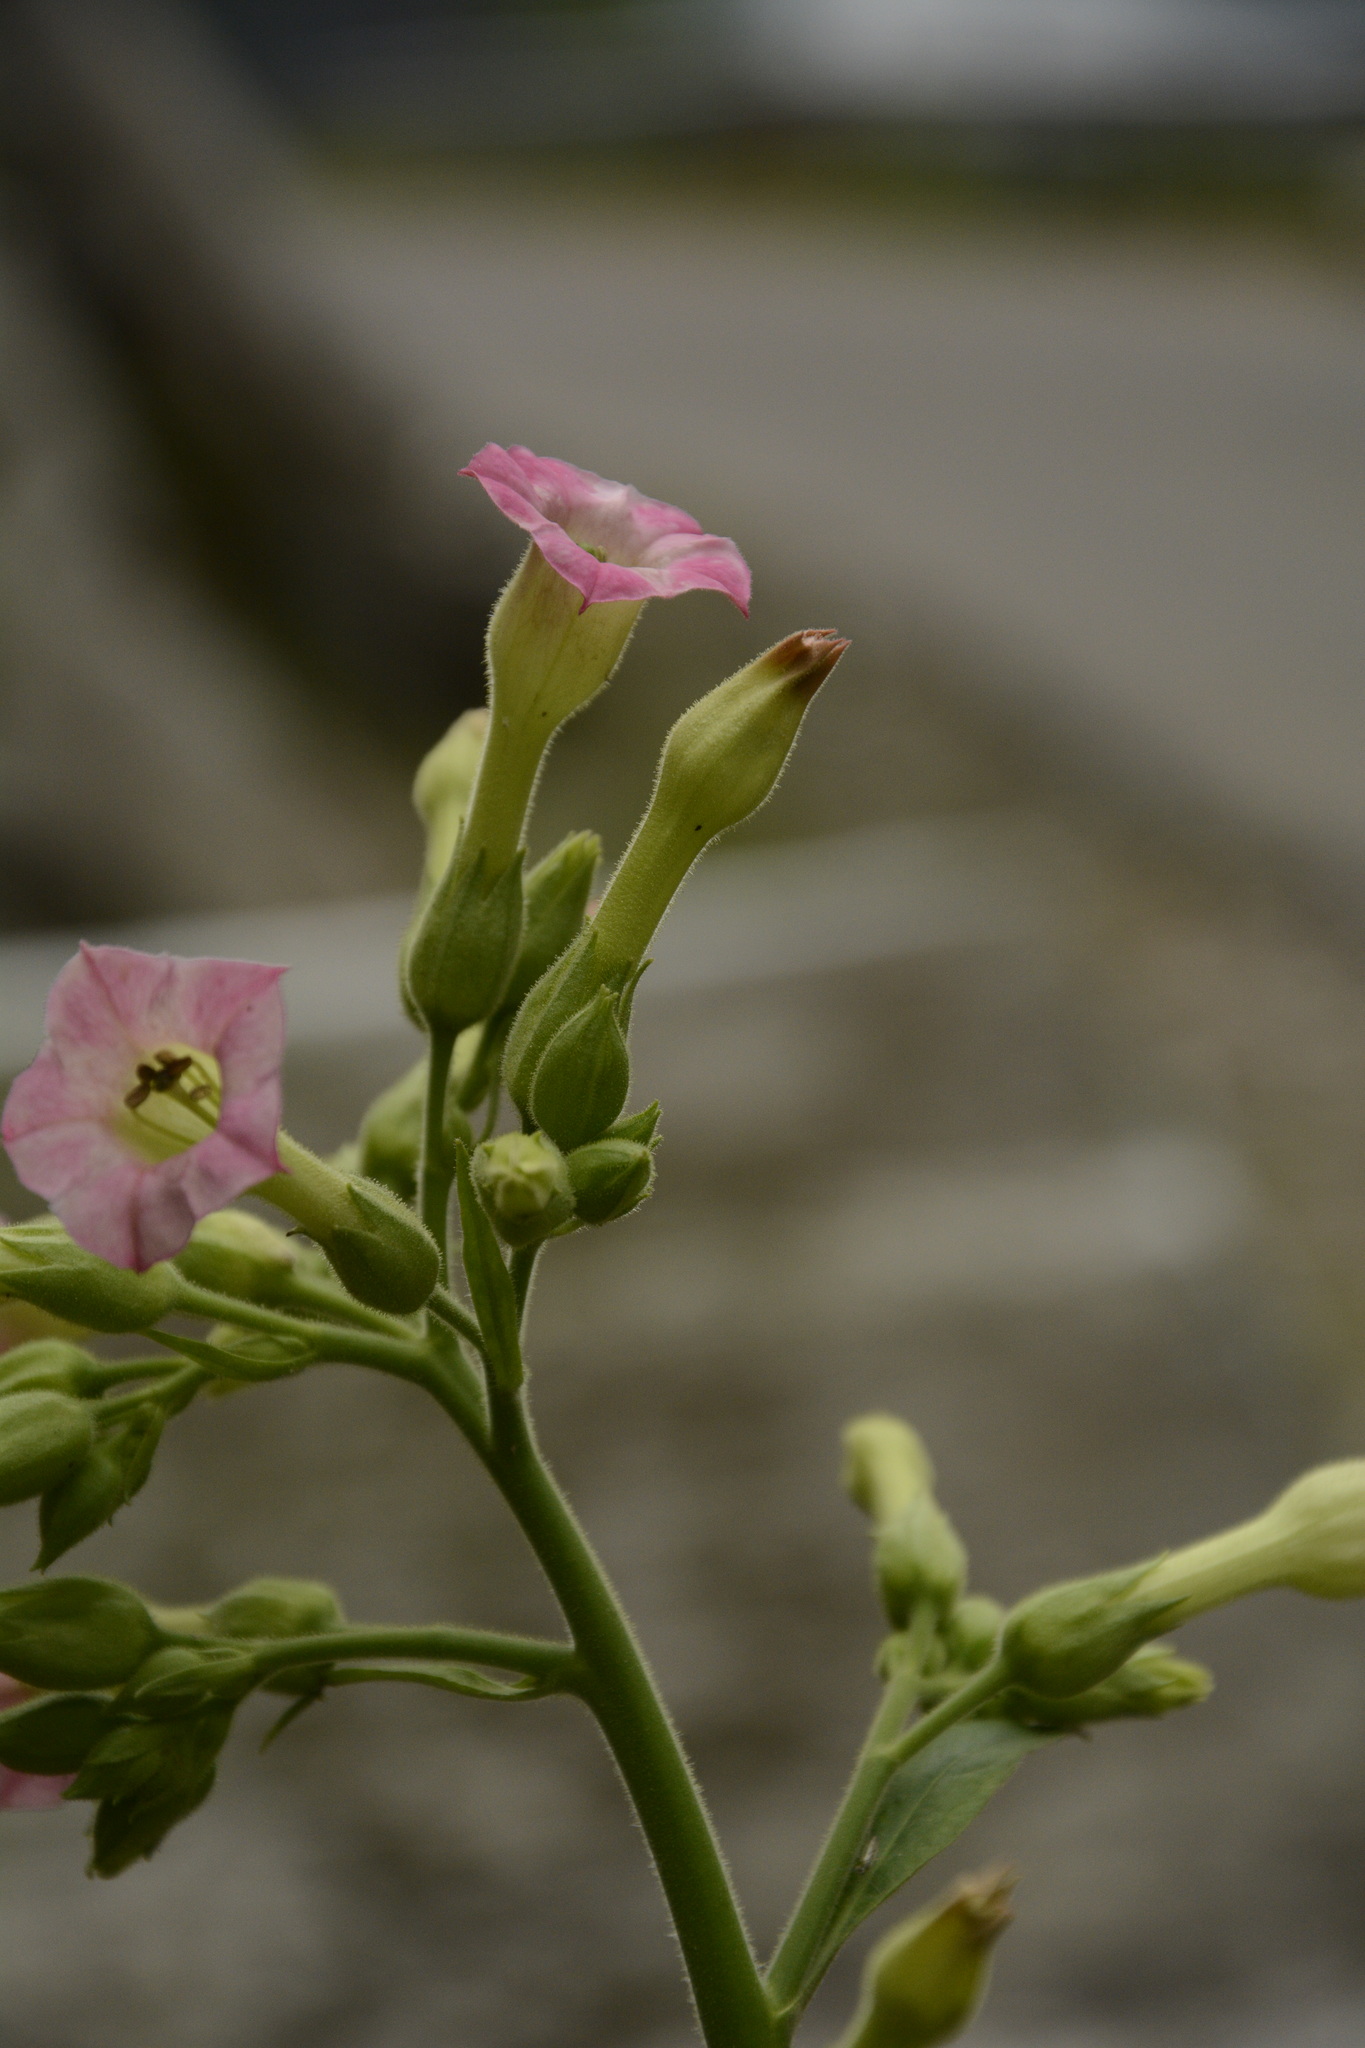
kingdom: Plantae
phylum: Tracheophyta
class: Magnoliopsida
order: Solanales
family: Solanaceae
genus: Nicotiana
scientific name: Nicotiana tabacum
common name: Tobacco
